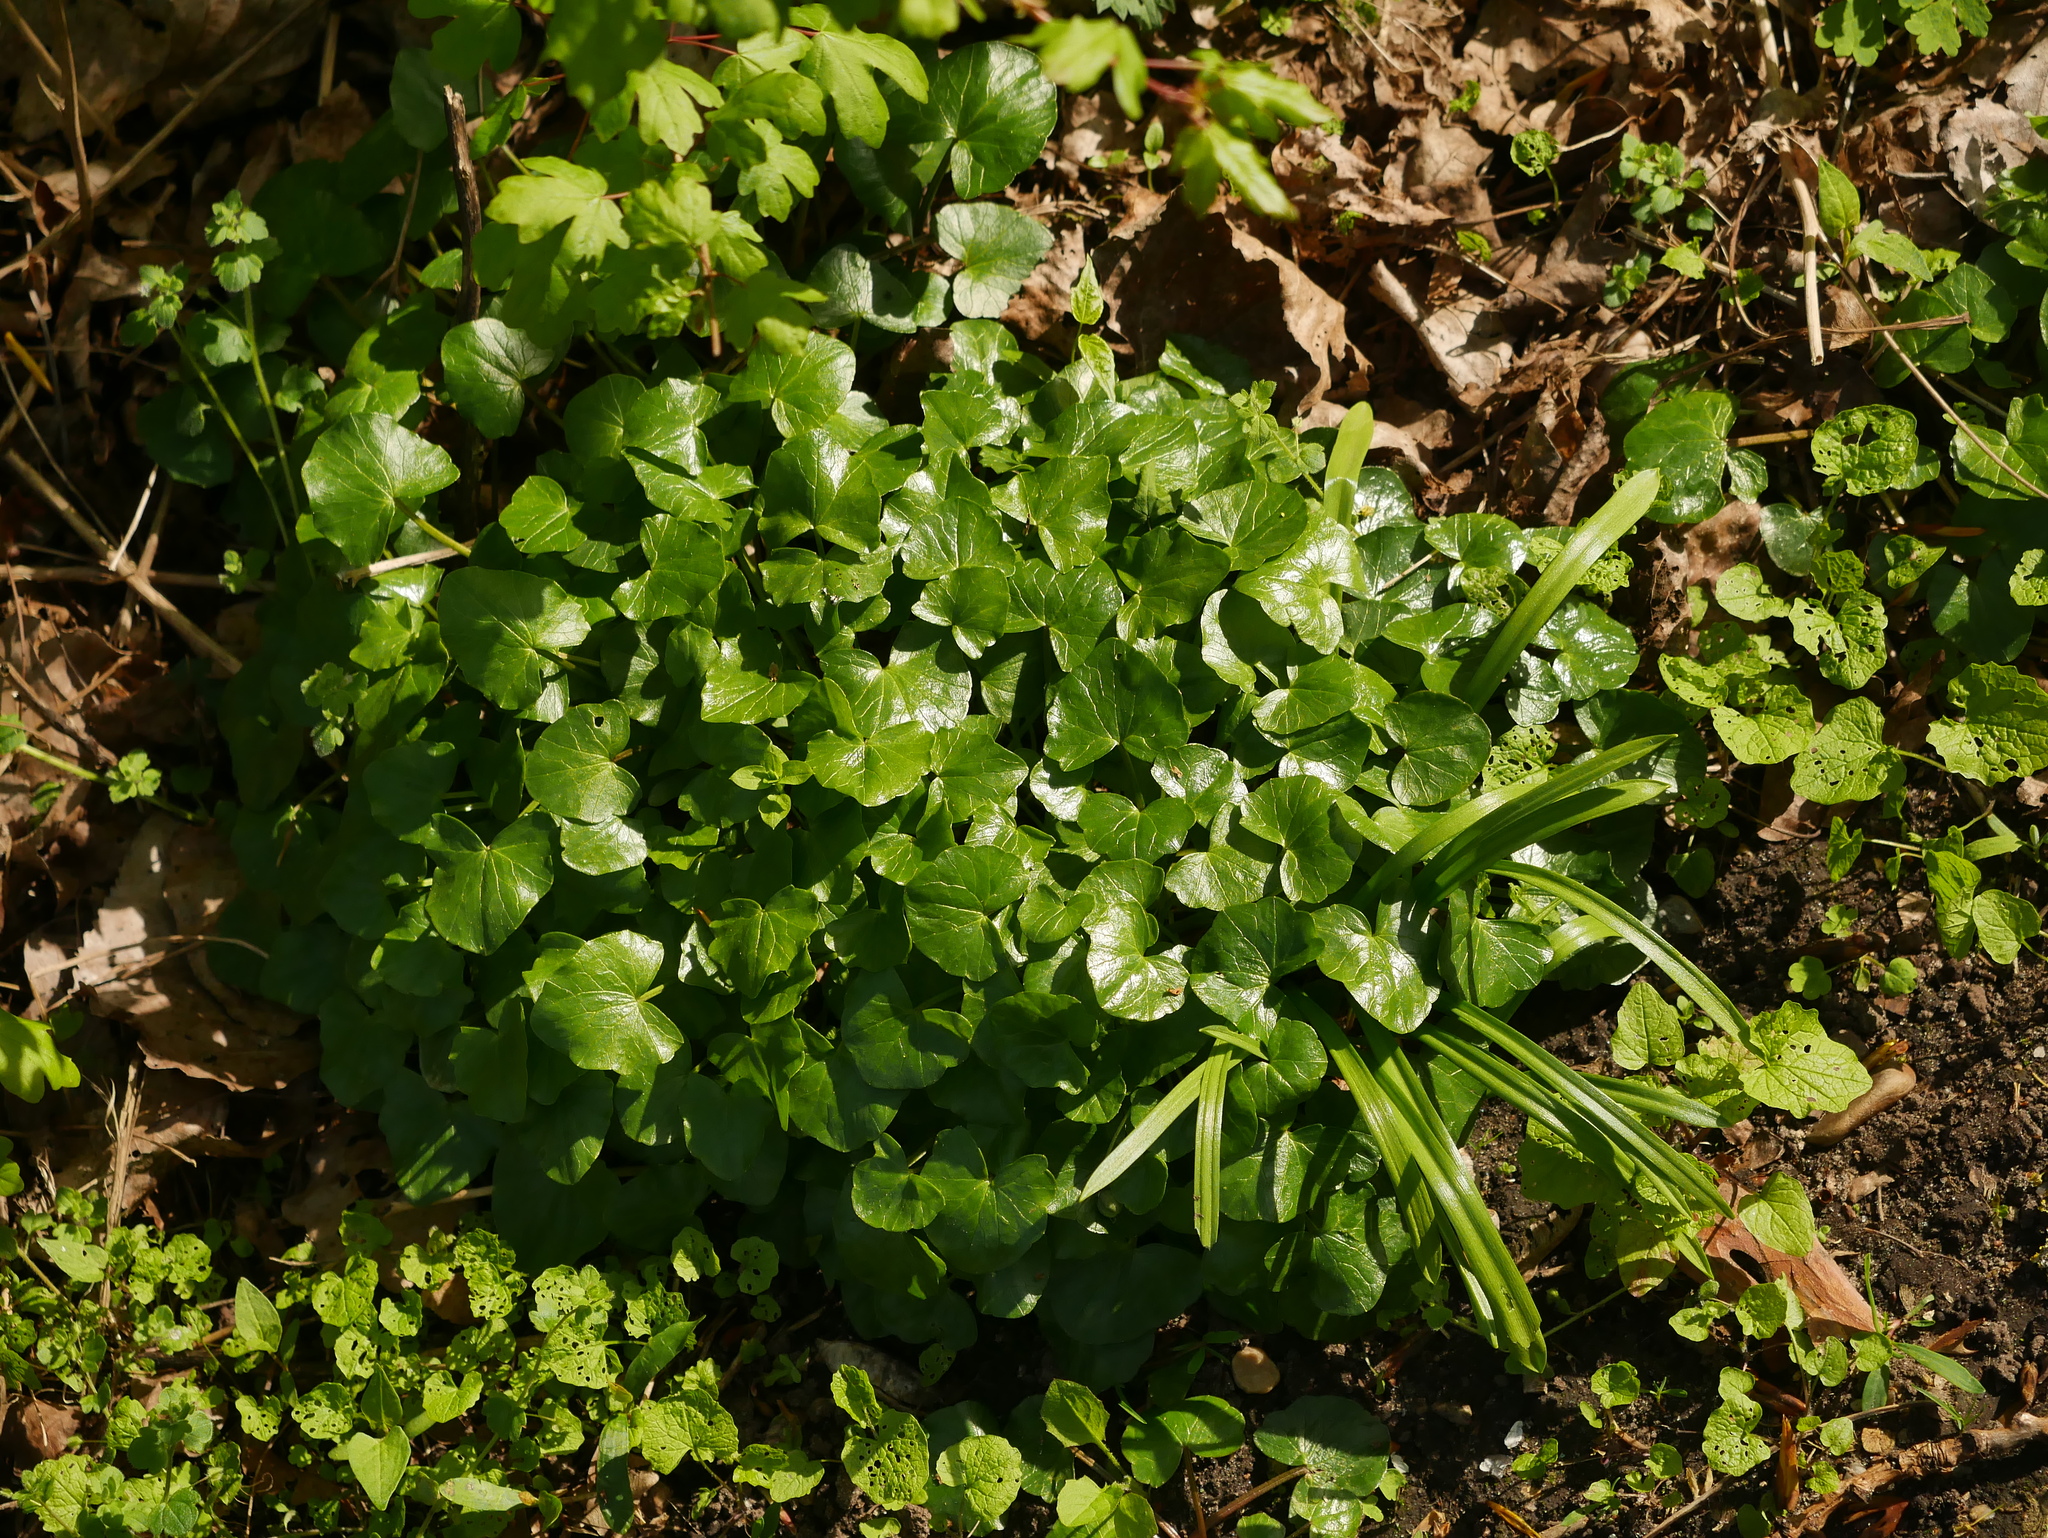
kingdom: Plantae
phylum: Tracheophyta
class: Magnoliopsida
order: Ranunculales
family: Ranunculaceae
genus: Ficaria
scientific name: Ficaria verna
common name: Lesser celandine
